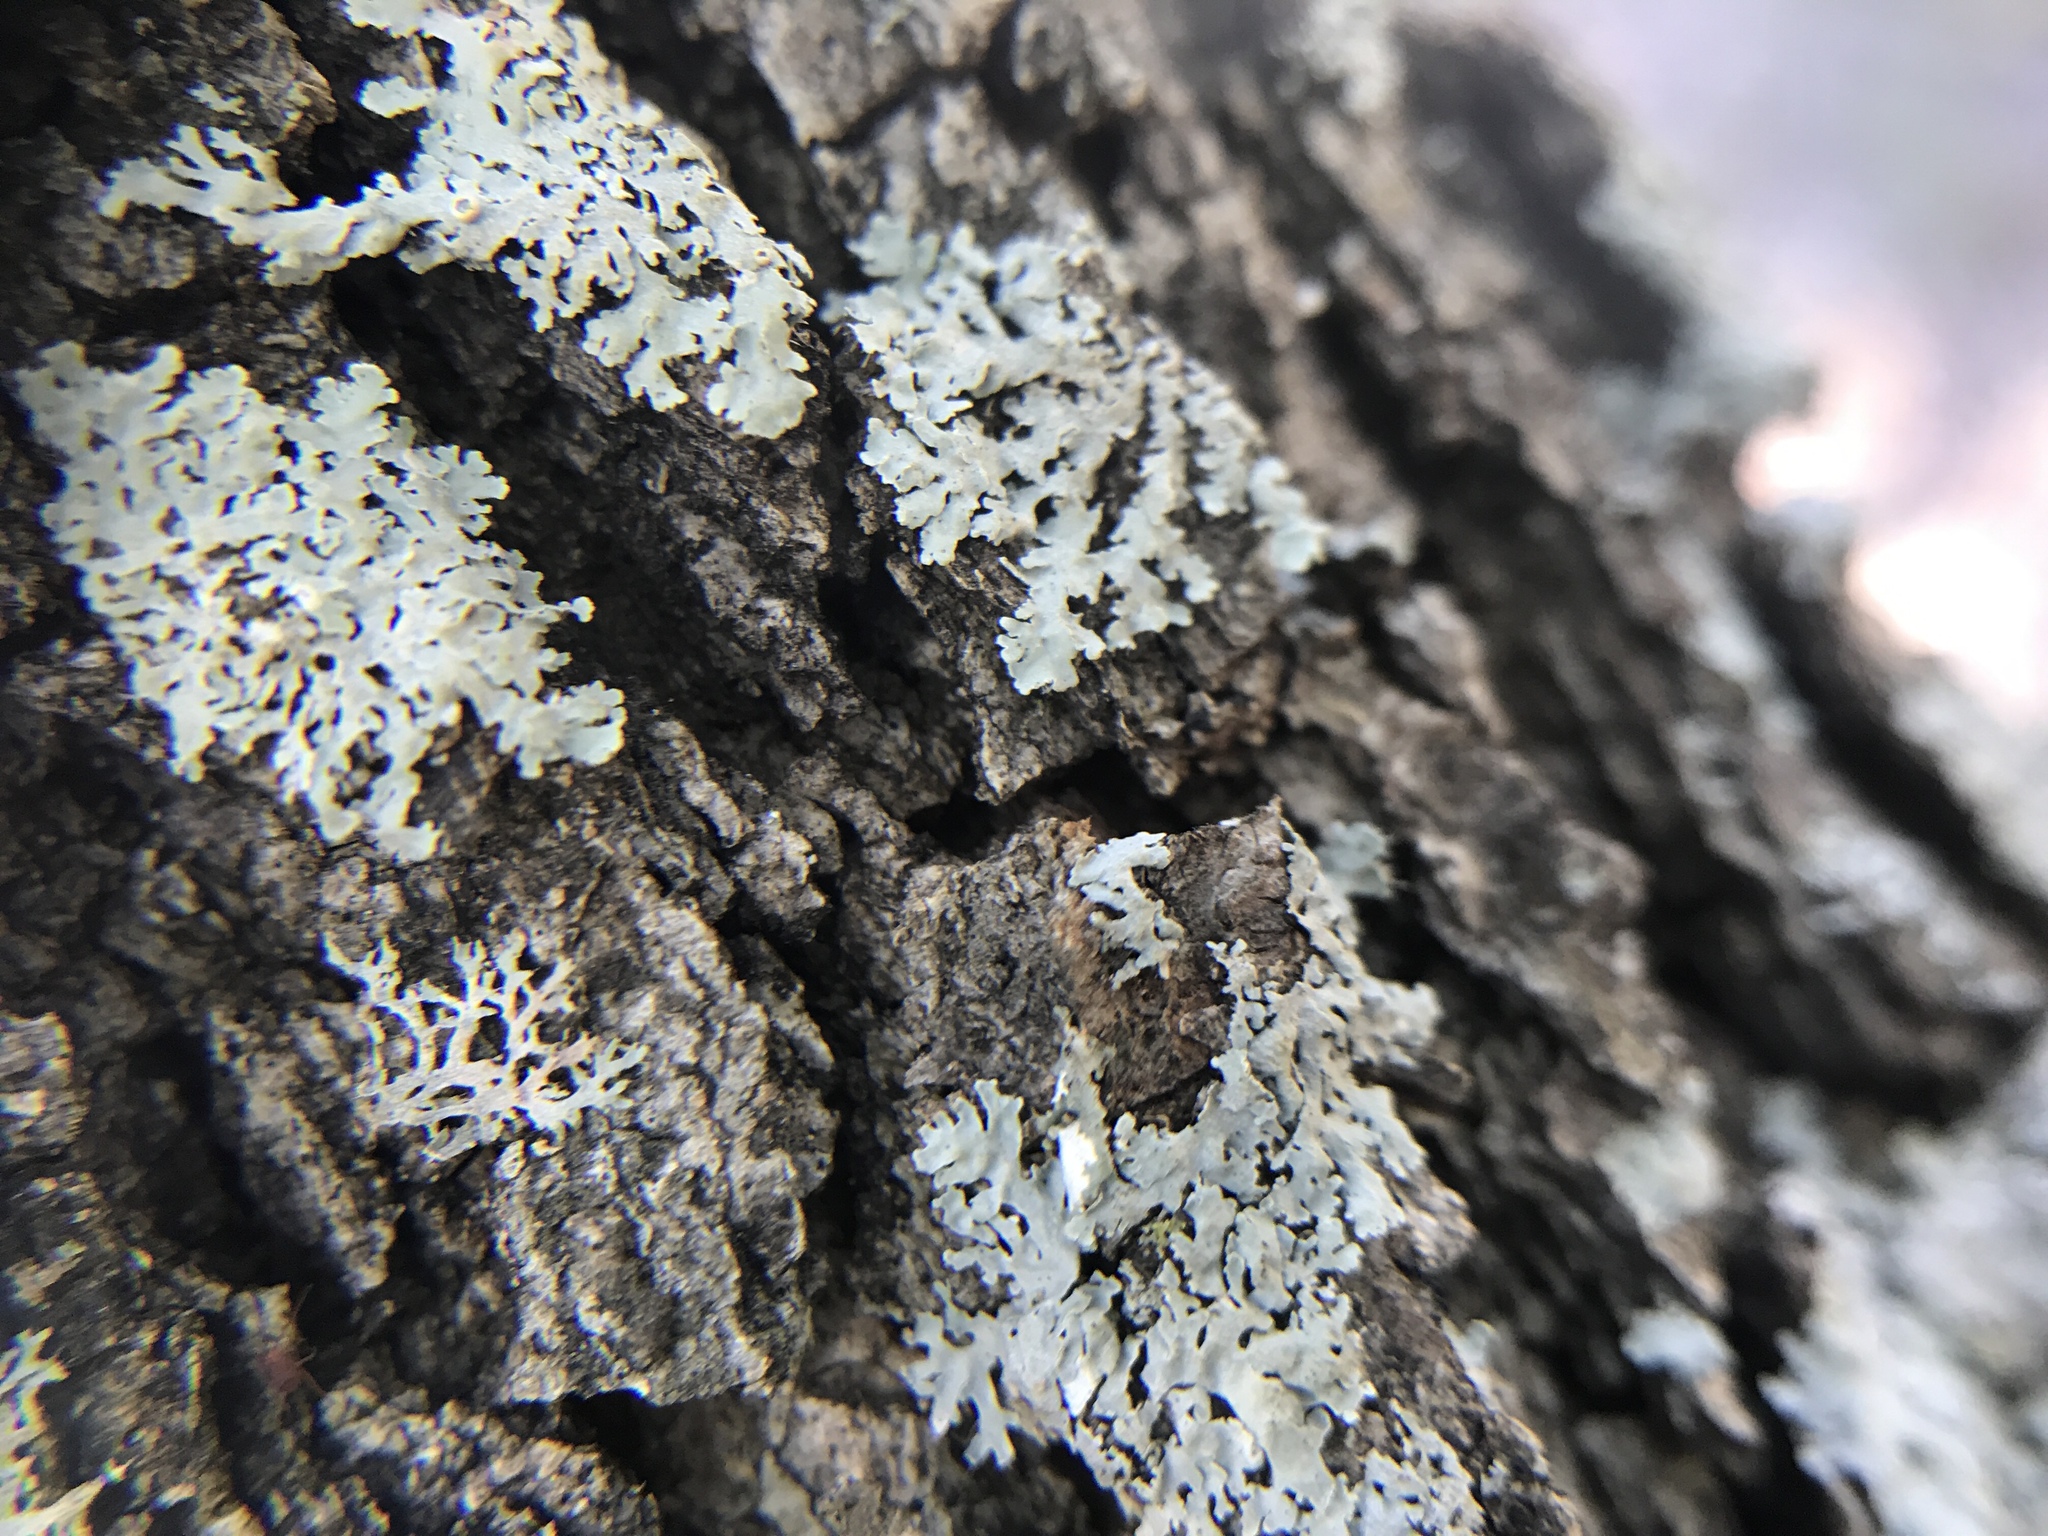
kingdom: Fungi
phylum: Ascomycota
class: Lecanoromycetes
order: Caliciales
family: Physciaceae
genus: Physcia
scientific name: Physcia aipolia
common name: Hoary rosette lichen
